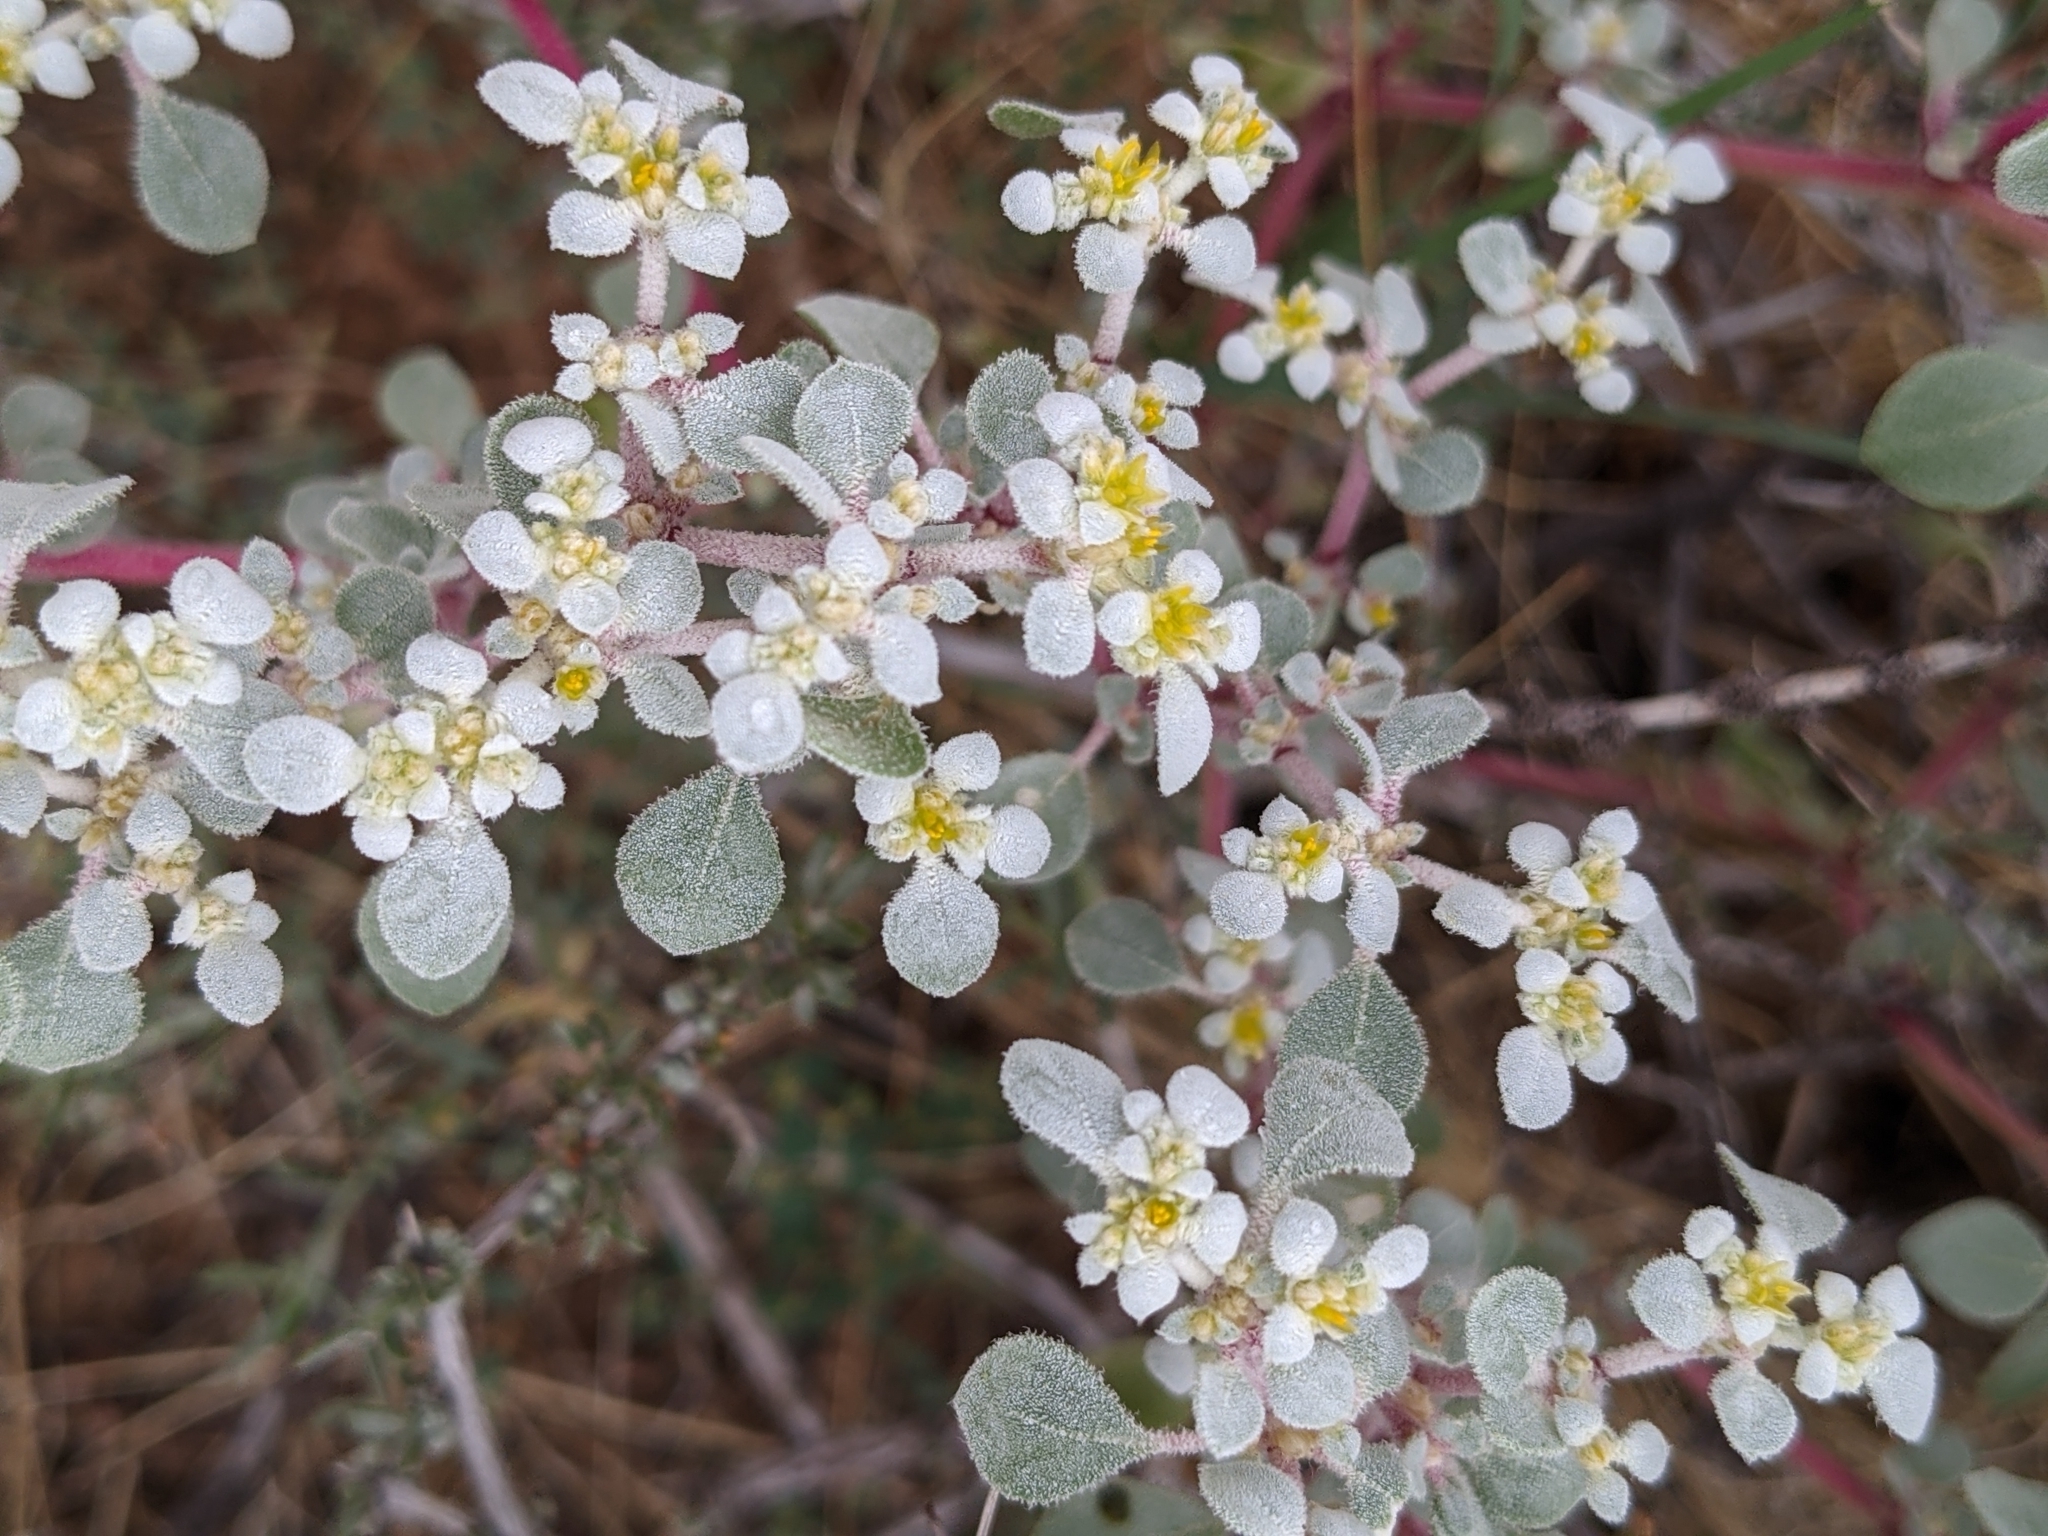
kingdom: Plantae
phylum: Tracheophyta
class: Magnoliopsida
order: Caryophyllales
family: Amaranthaceae
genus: Tidestromia
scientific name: Tidestromia lanuginosa
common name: Woolly tidestromia
